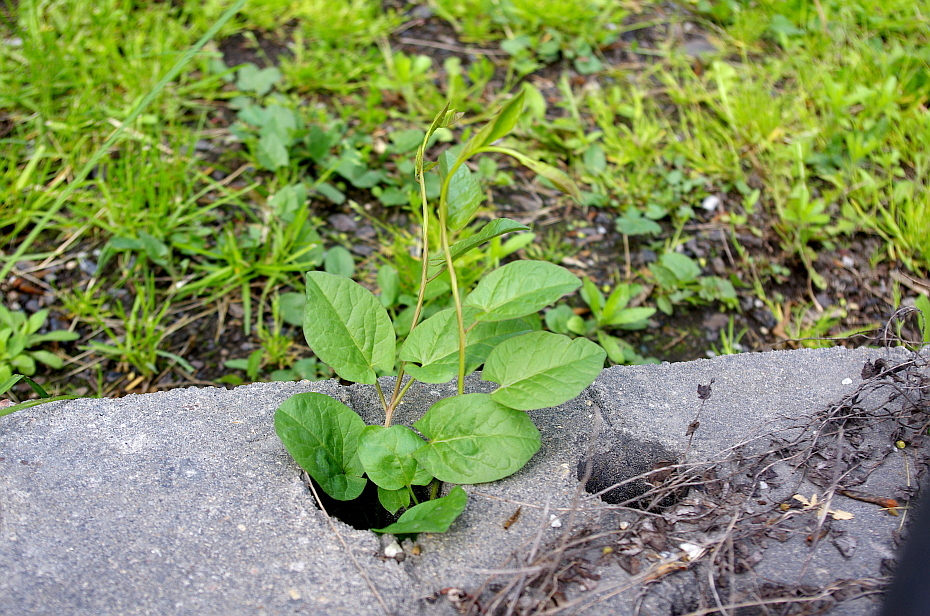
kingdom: Plantae
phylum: Tracheophyta
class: Magnoliopsida
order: Solanales
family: Convolvulaceae
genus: Convolvulus
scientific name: Convolvulus arvensis
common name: Field bindweed
